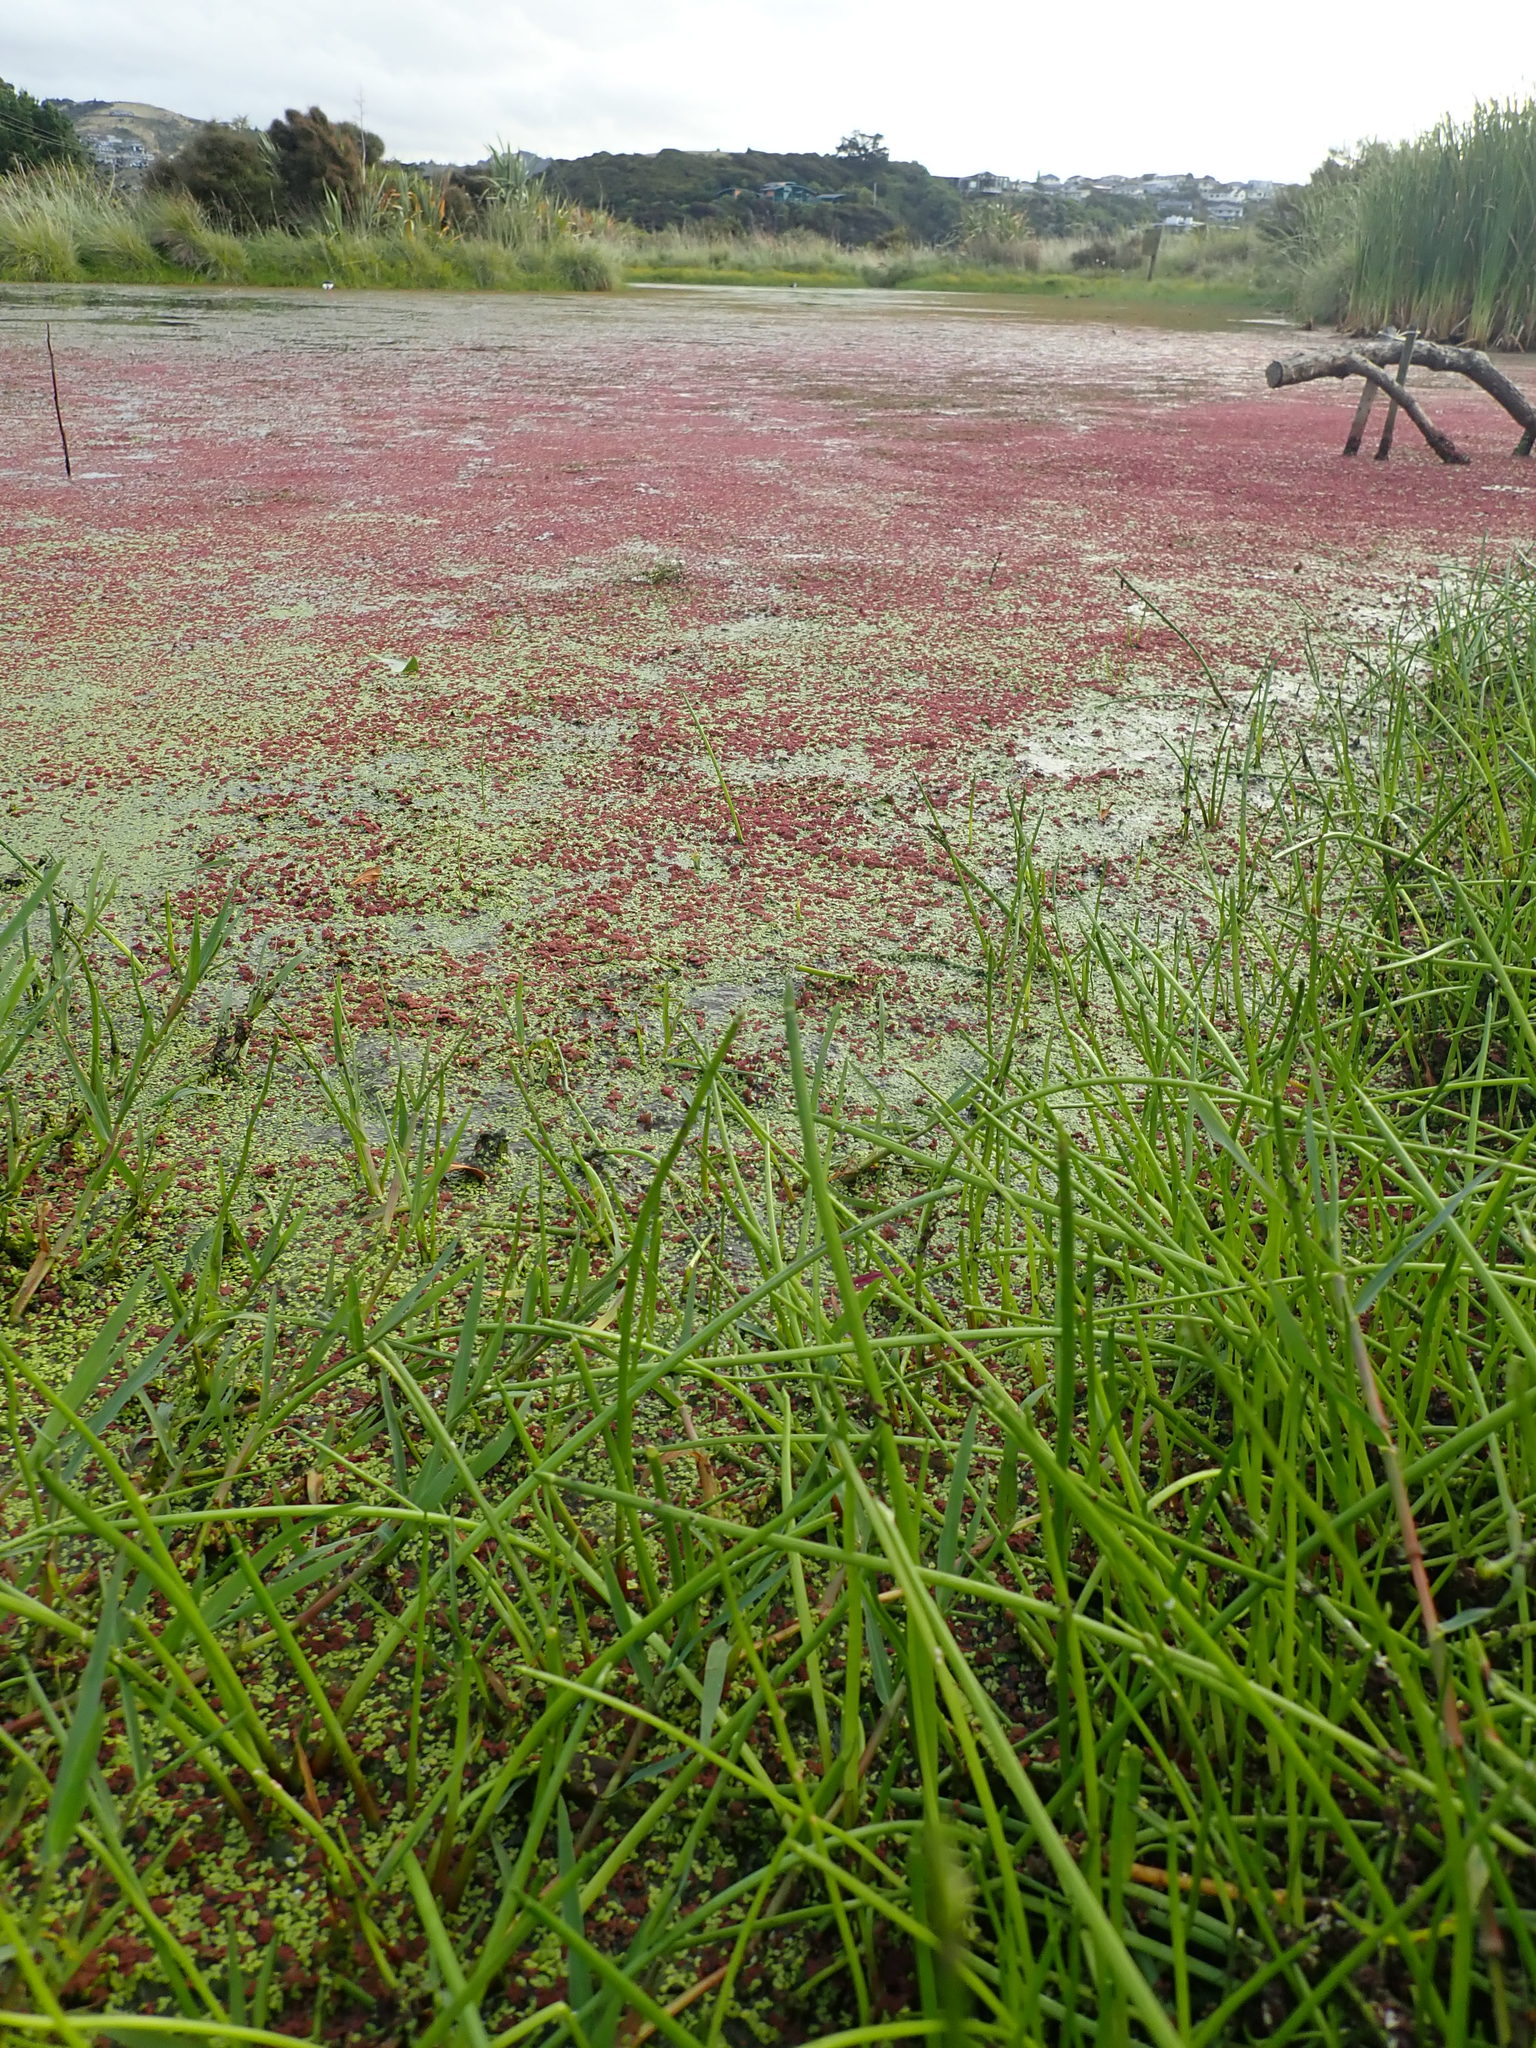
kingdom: Plantae
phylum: Tracheophyta
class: Polypodiopsida
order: Salviniales
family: Salviniaceae
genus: Azolla
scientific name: Azolla rubra
